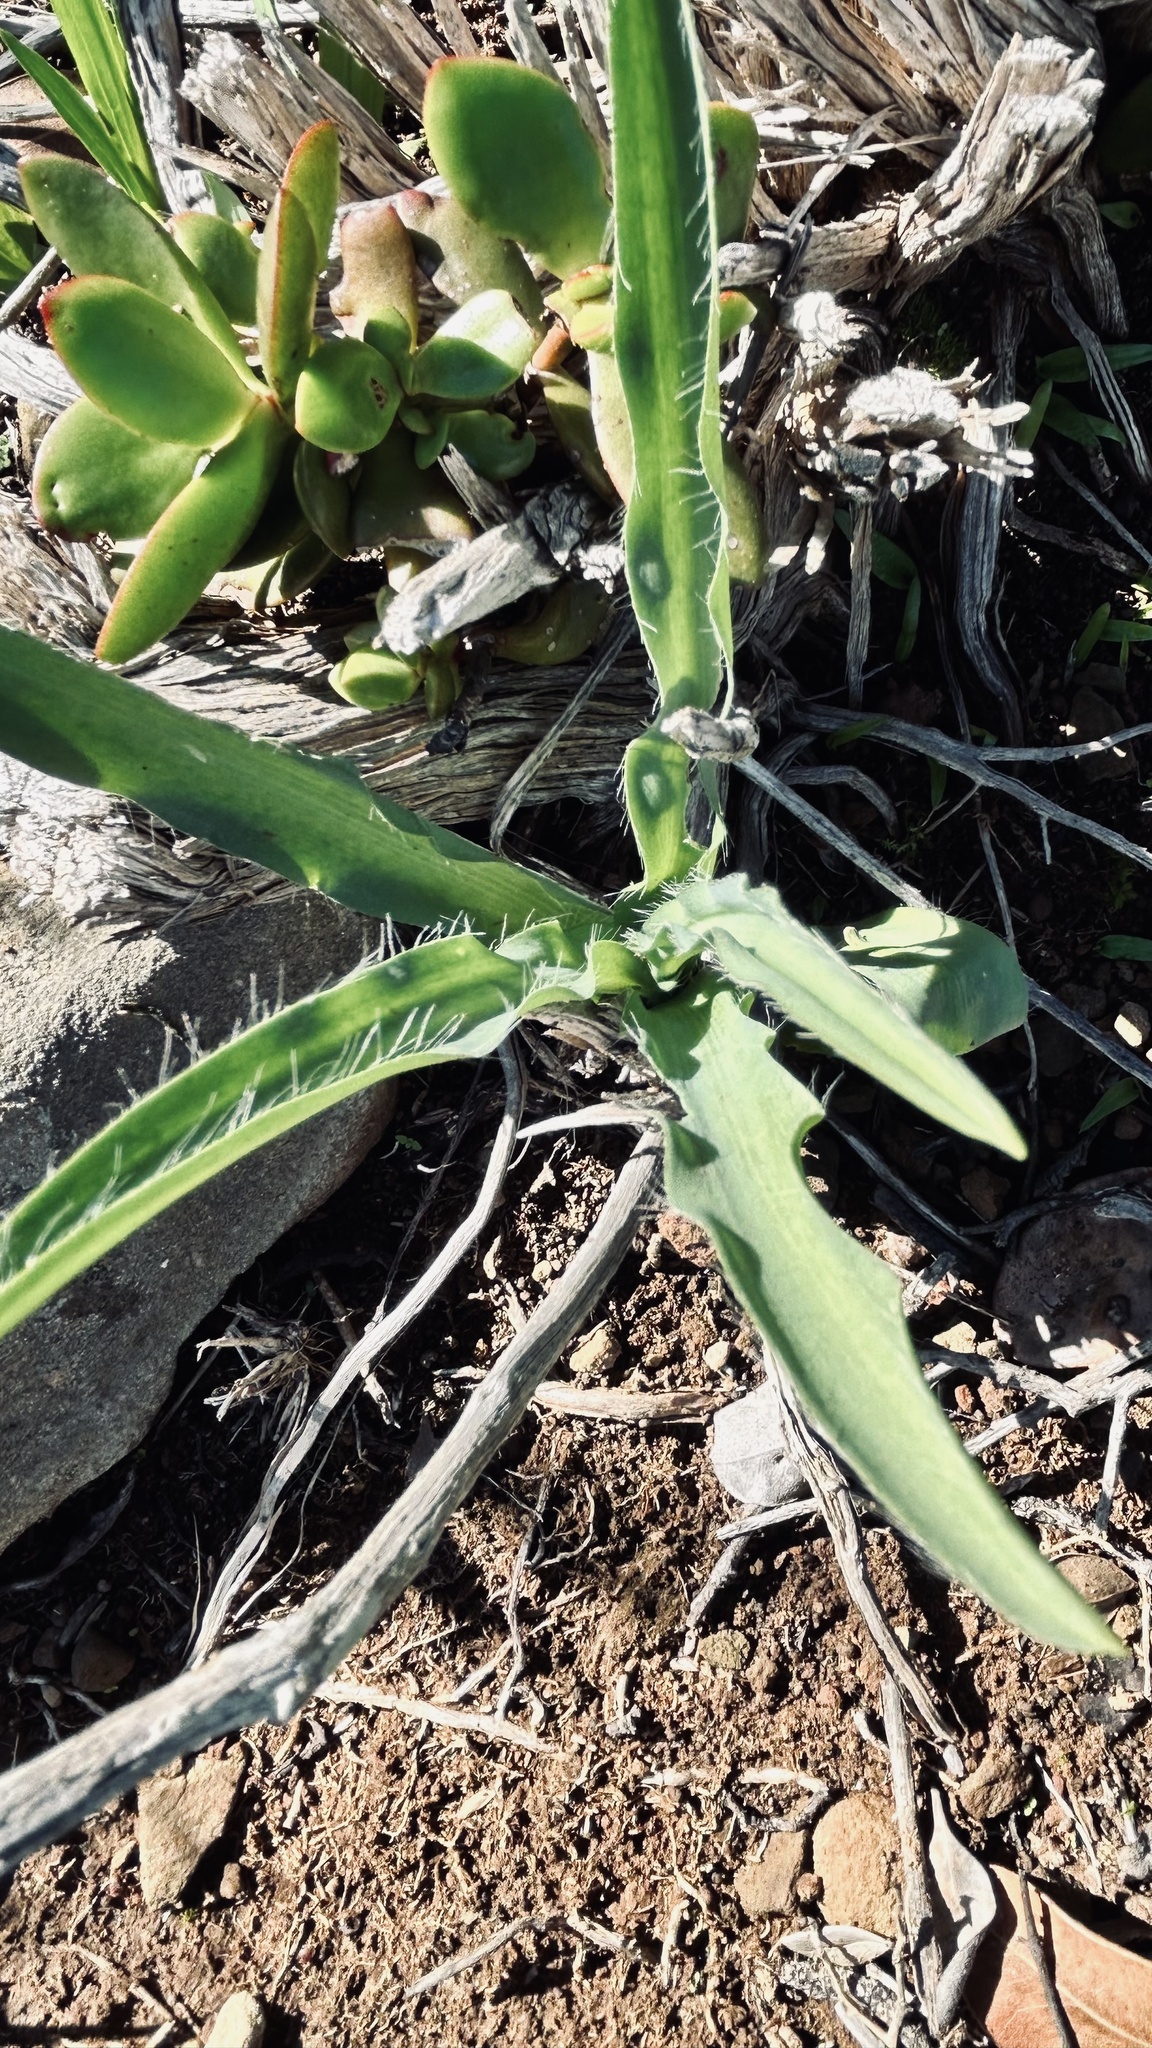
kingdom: Plantae
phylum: Tracheophyta
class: Liliopsida
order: Asparagales
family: Asparagaceae
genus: Drimia
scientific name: Drimia elata
